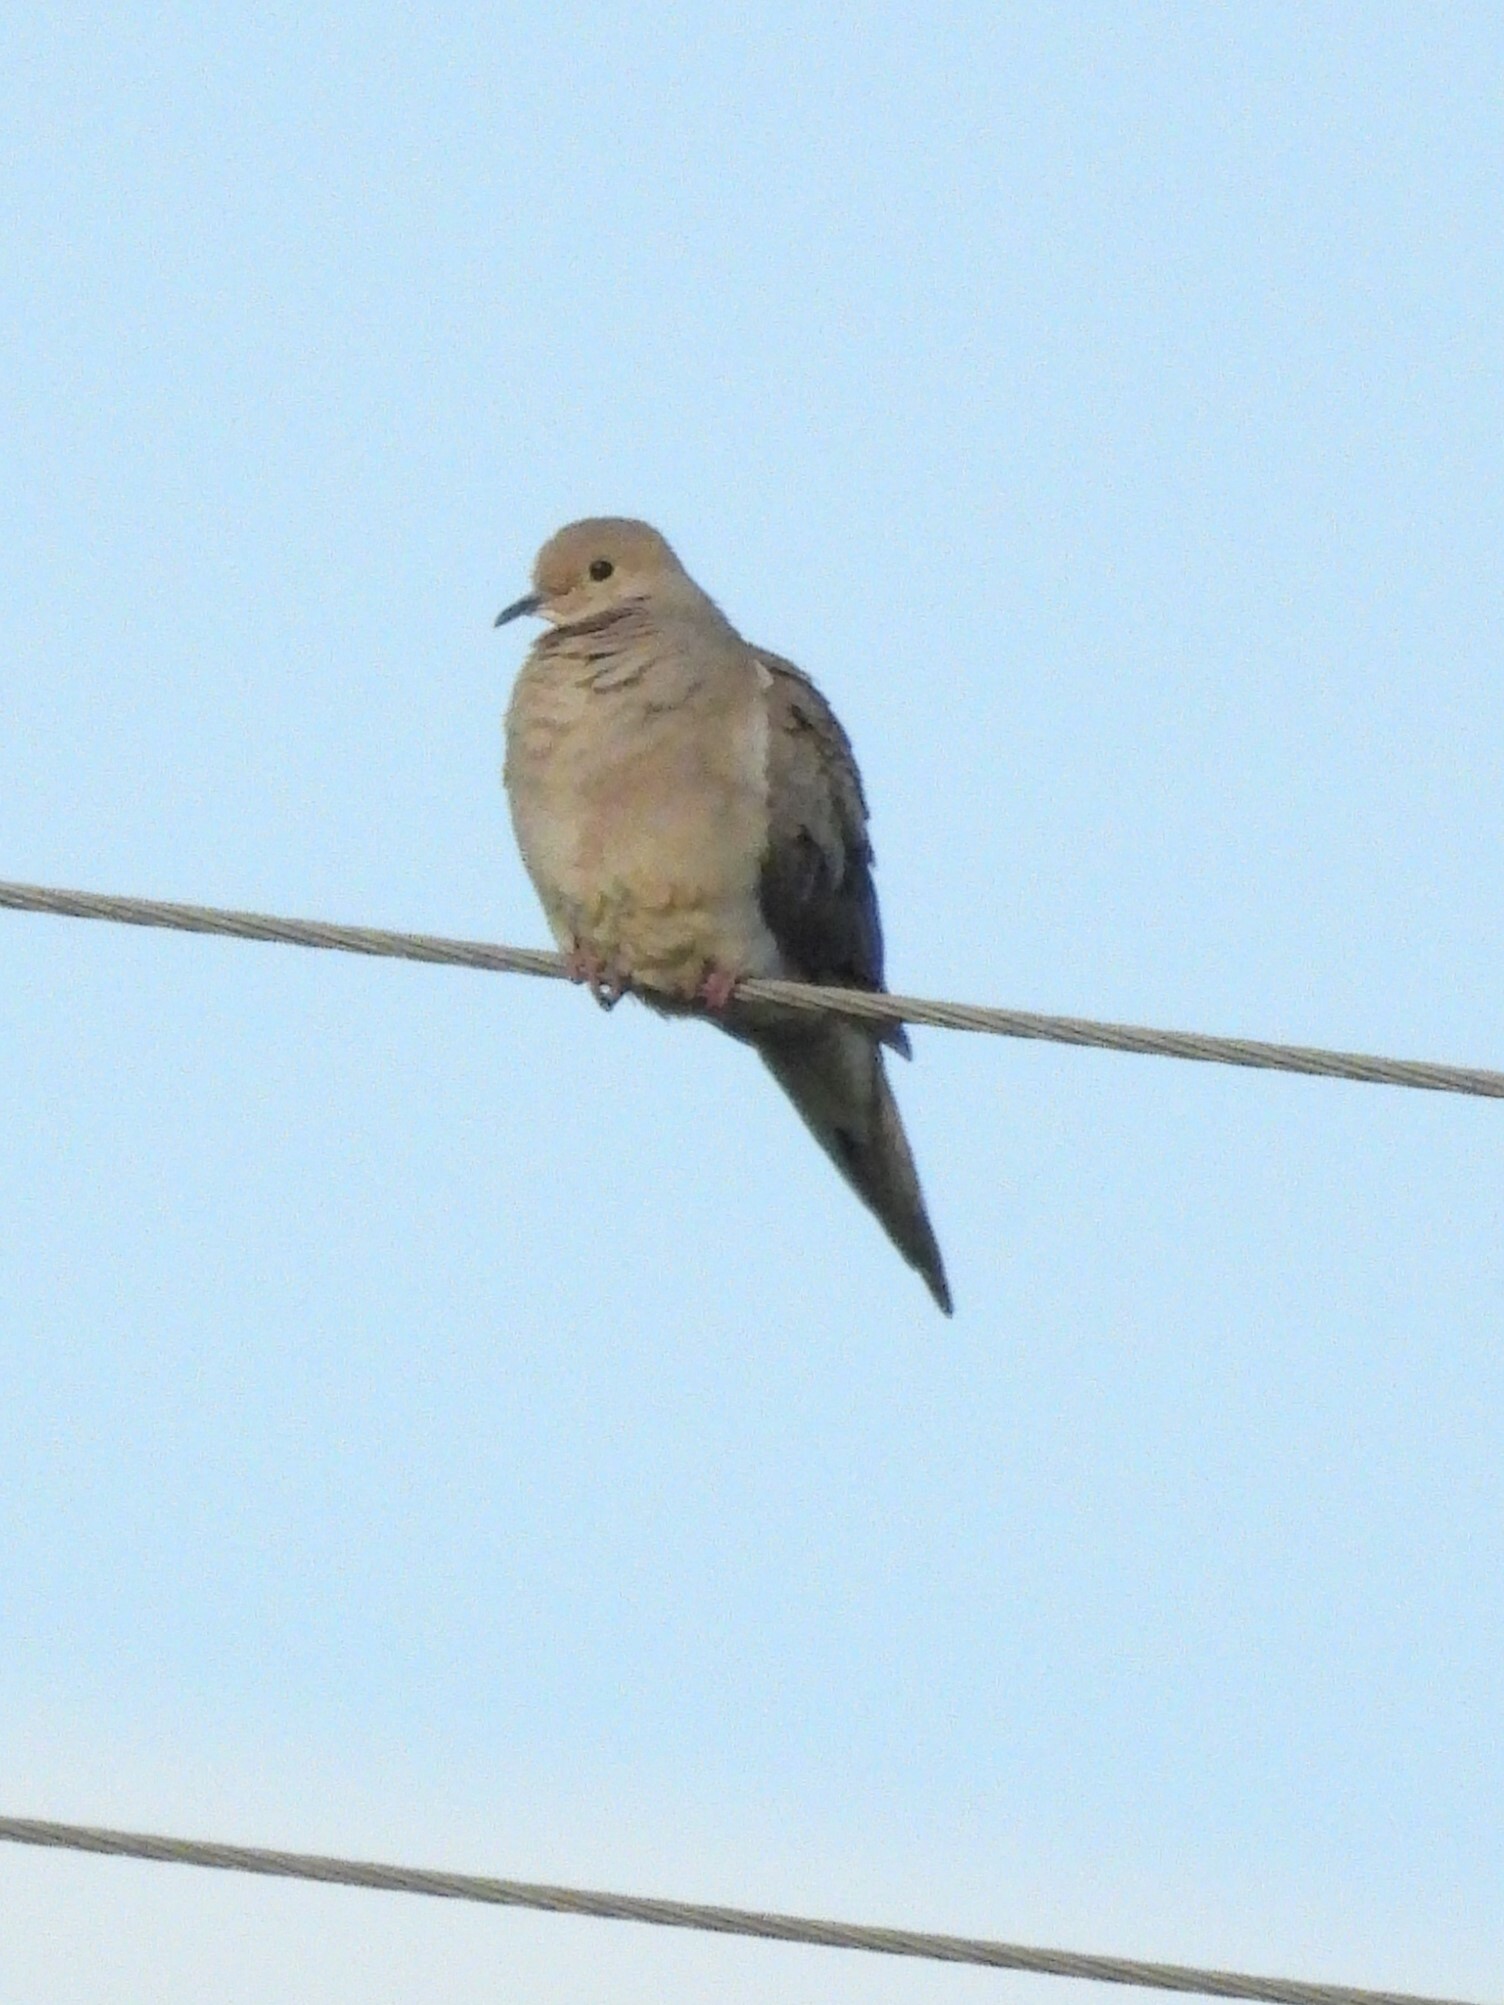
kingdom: Animalia
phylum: Chordata
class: Aves
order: Columbiformes
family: Columbidae
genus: Zenaida
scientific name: Zenaida macroura
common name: Mourning dove
